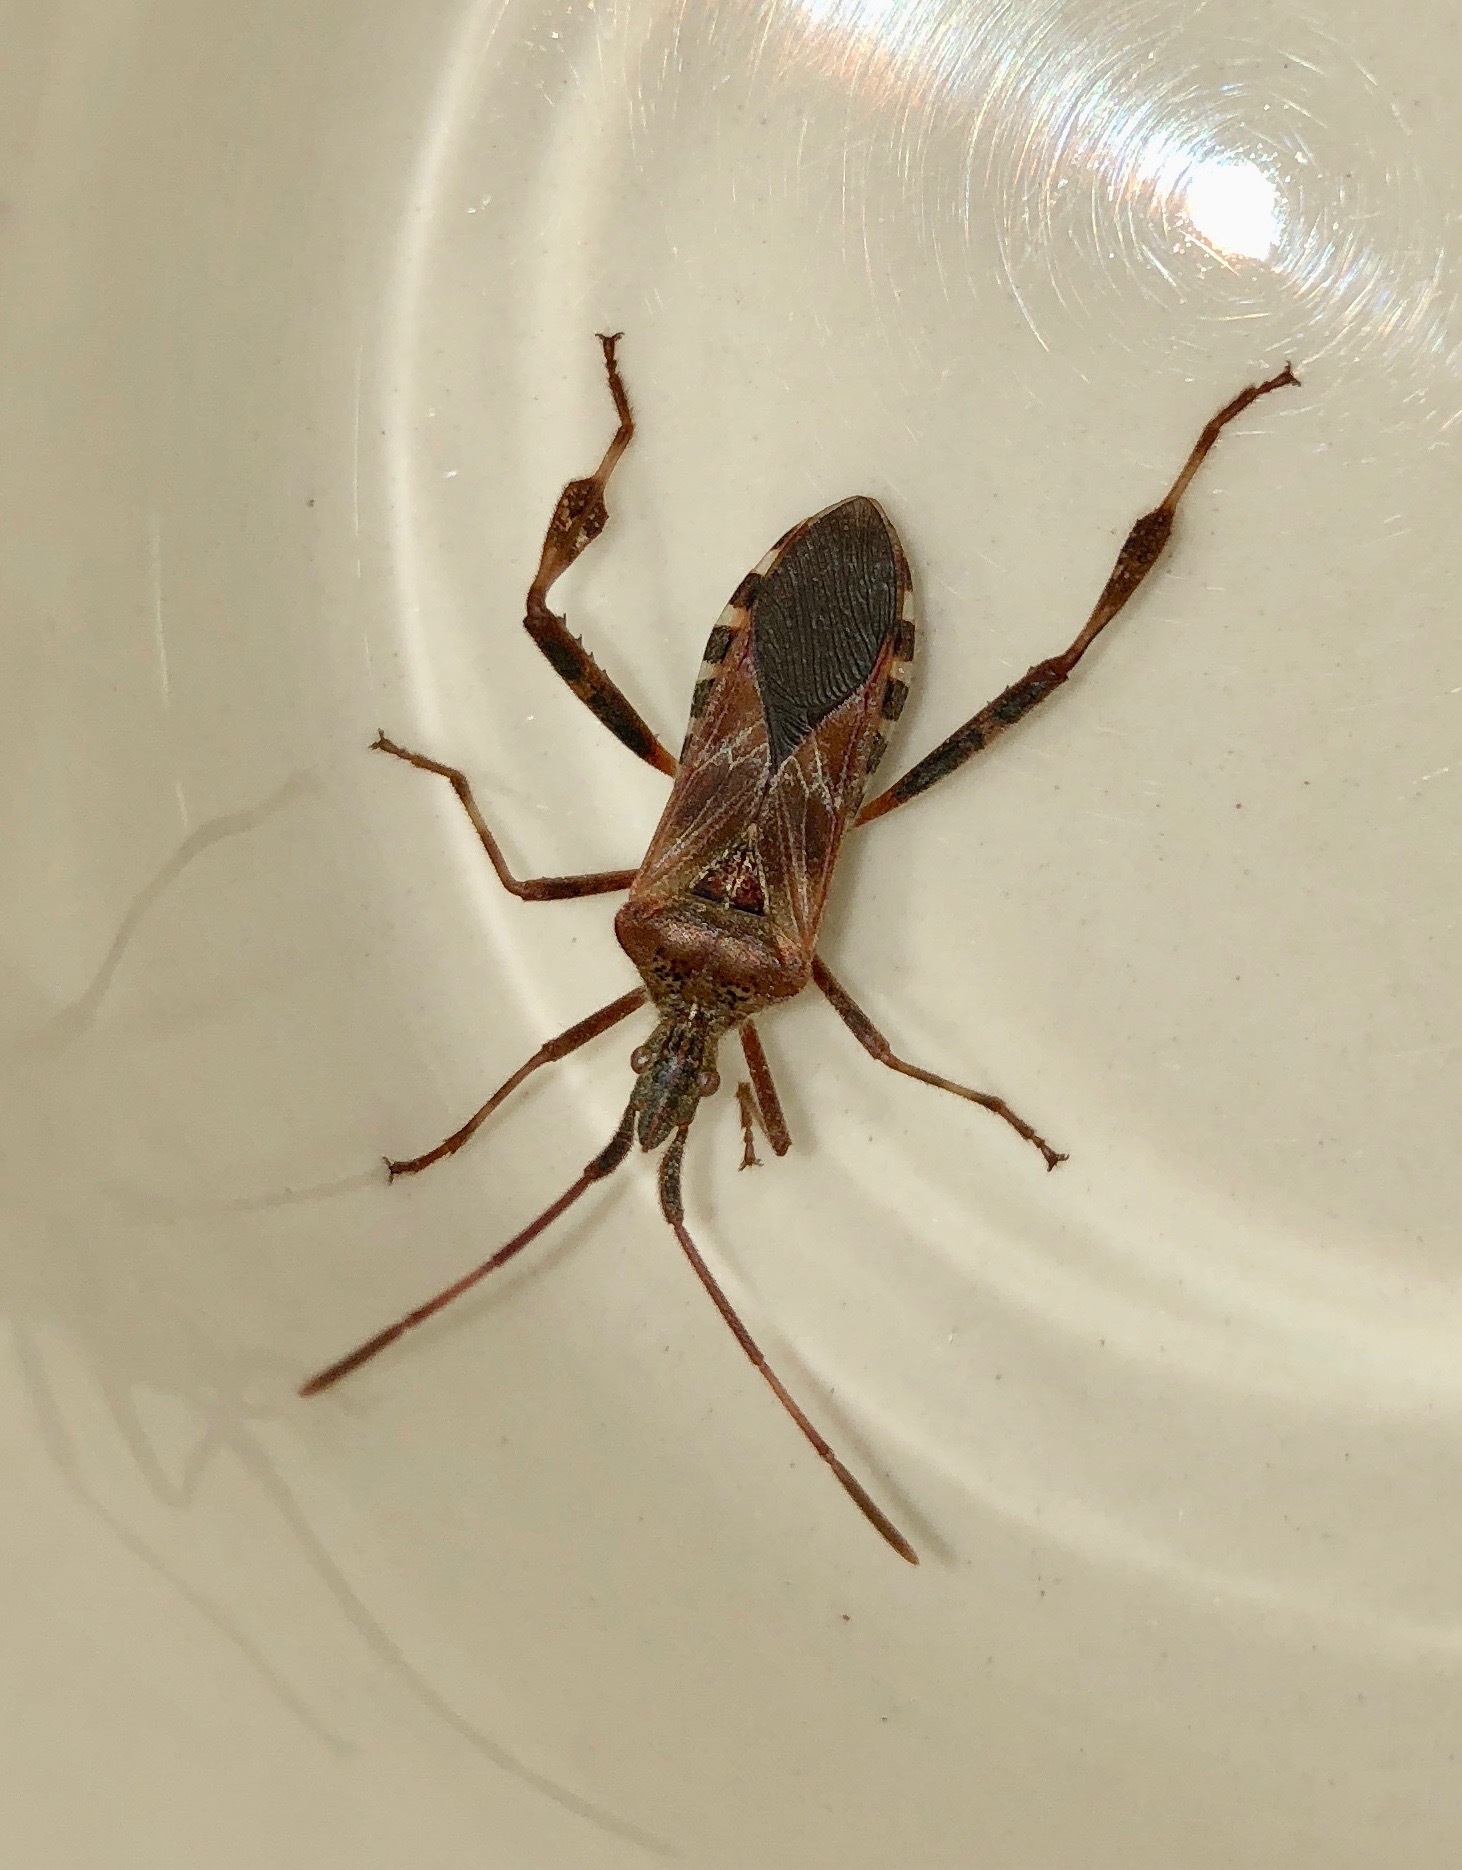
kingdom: Animalia
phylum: Arthropoda
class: Insecta
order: Hemiptera
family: Coreidae
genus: Leptoglossus
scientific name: Leptoglossus occidentalis
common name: Western conifer-seed bug
